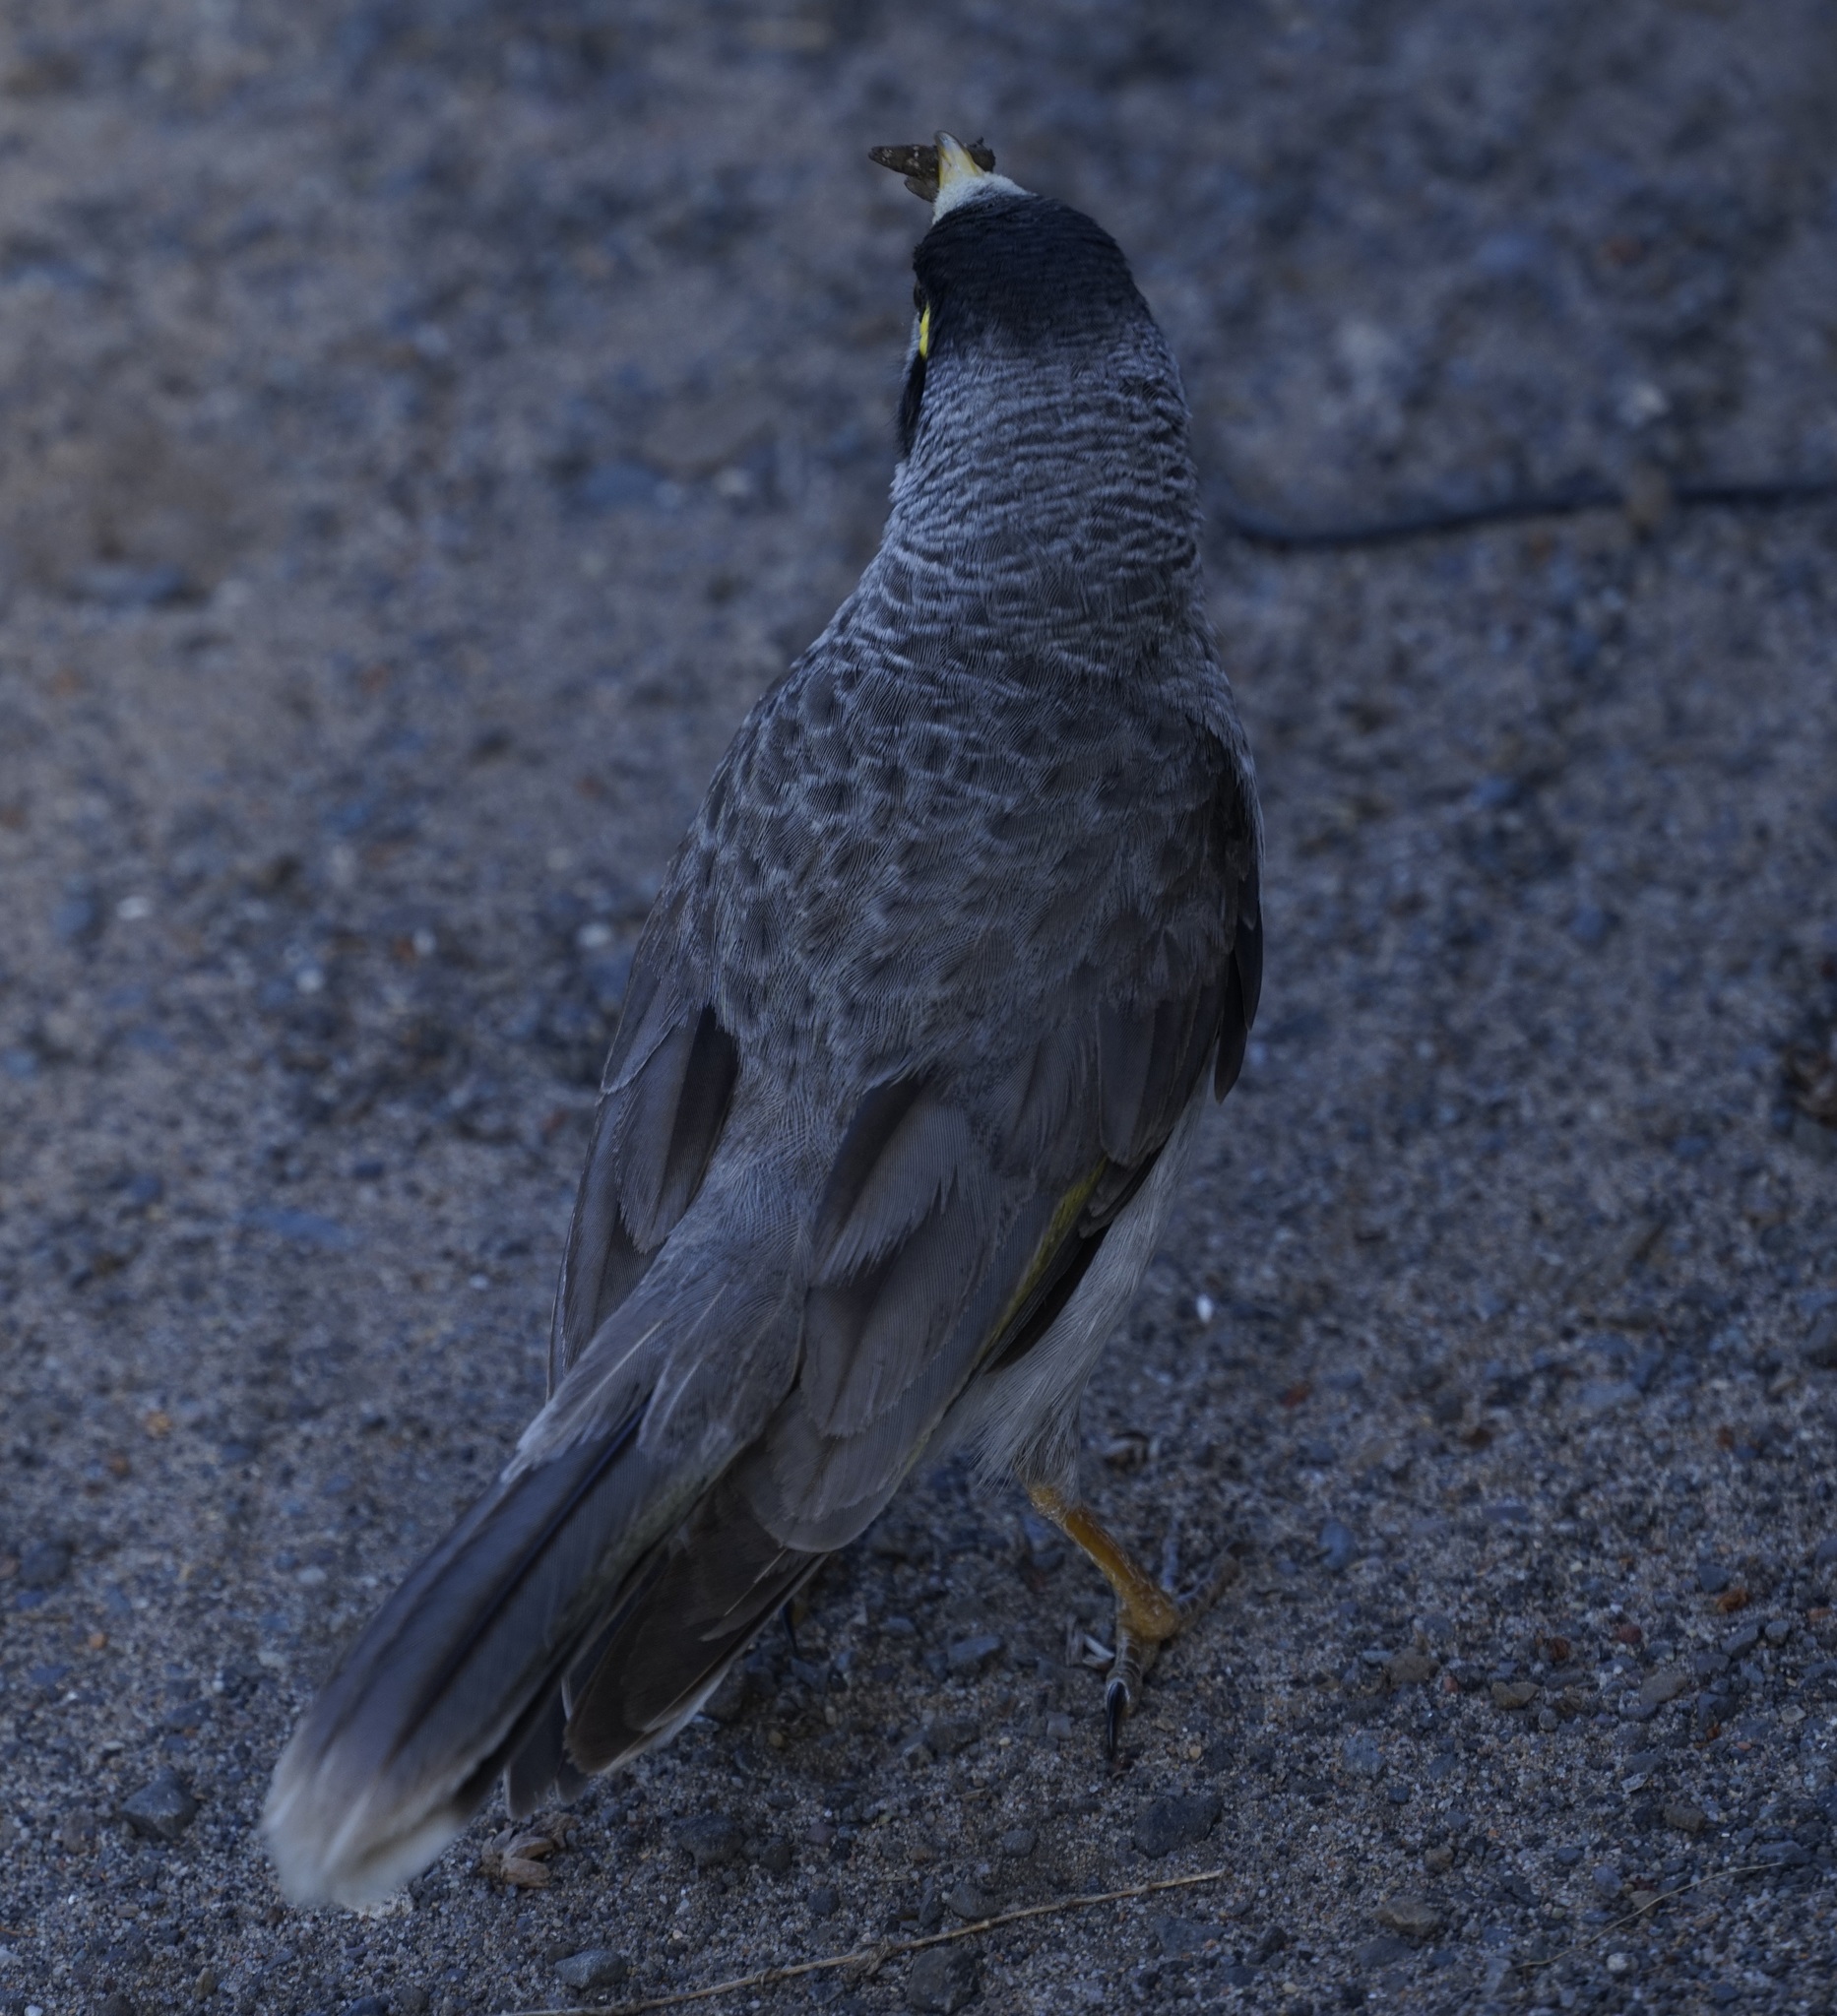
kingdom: Animalia
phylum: Chordata
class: Aves
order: Passeriformes
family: Meliphagidae
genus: Manorina
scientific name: Manorina melanocephala
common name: Noisy miner
